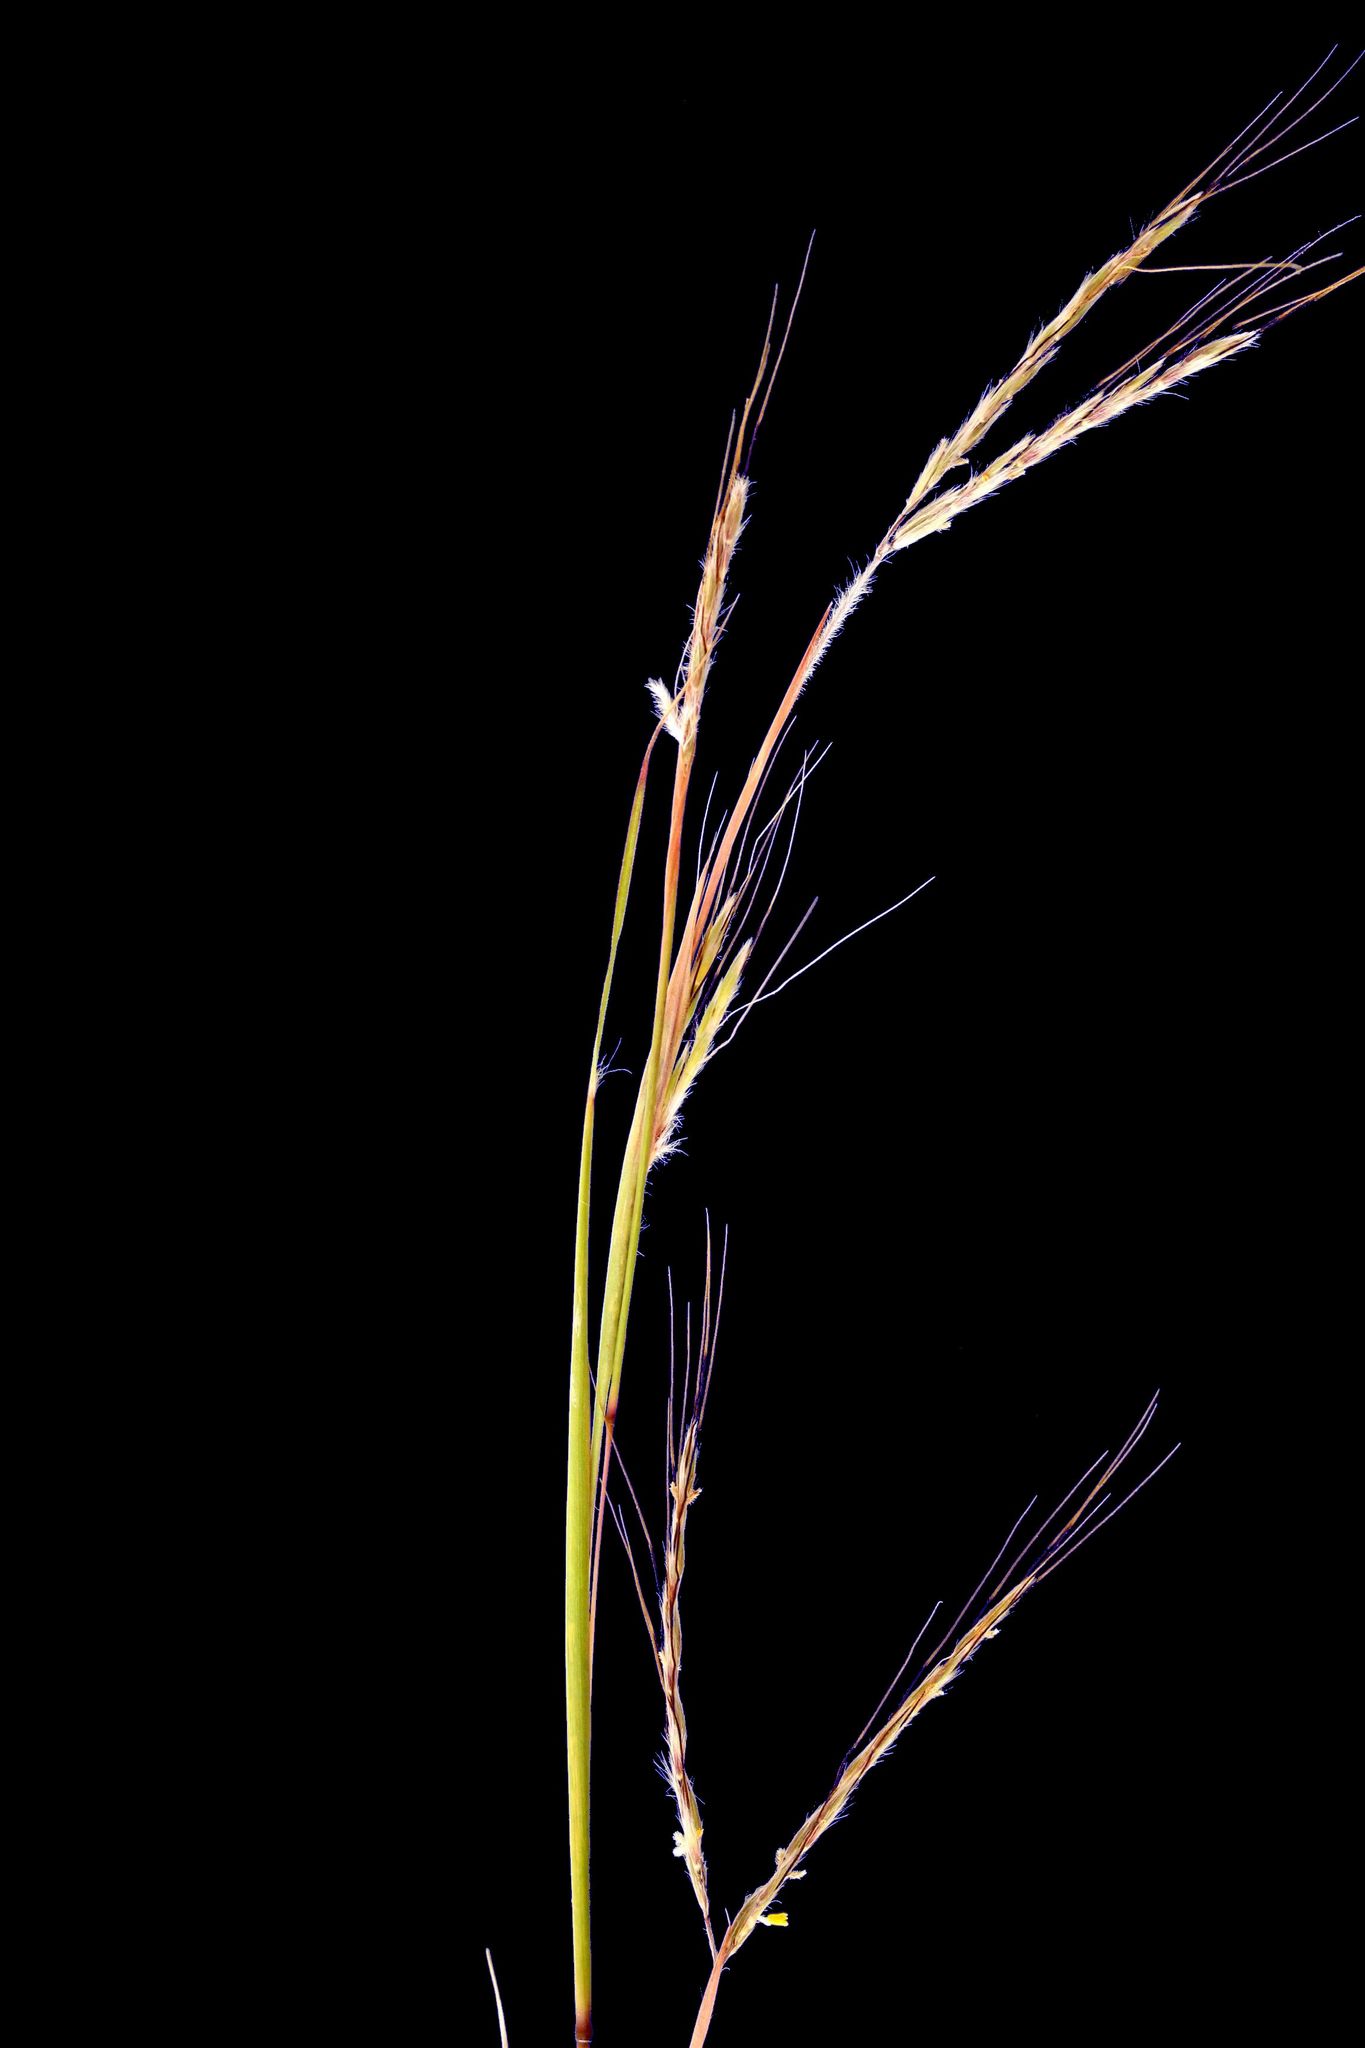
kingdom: Plantae
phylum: Tracheophyta
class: Liliopsida
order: Poales
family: Poaceae
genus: Hyparrhenia
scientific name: Hyparrhenia hirta
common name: Thatching grass
